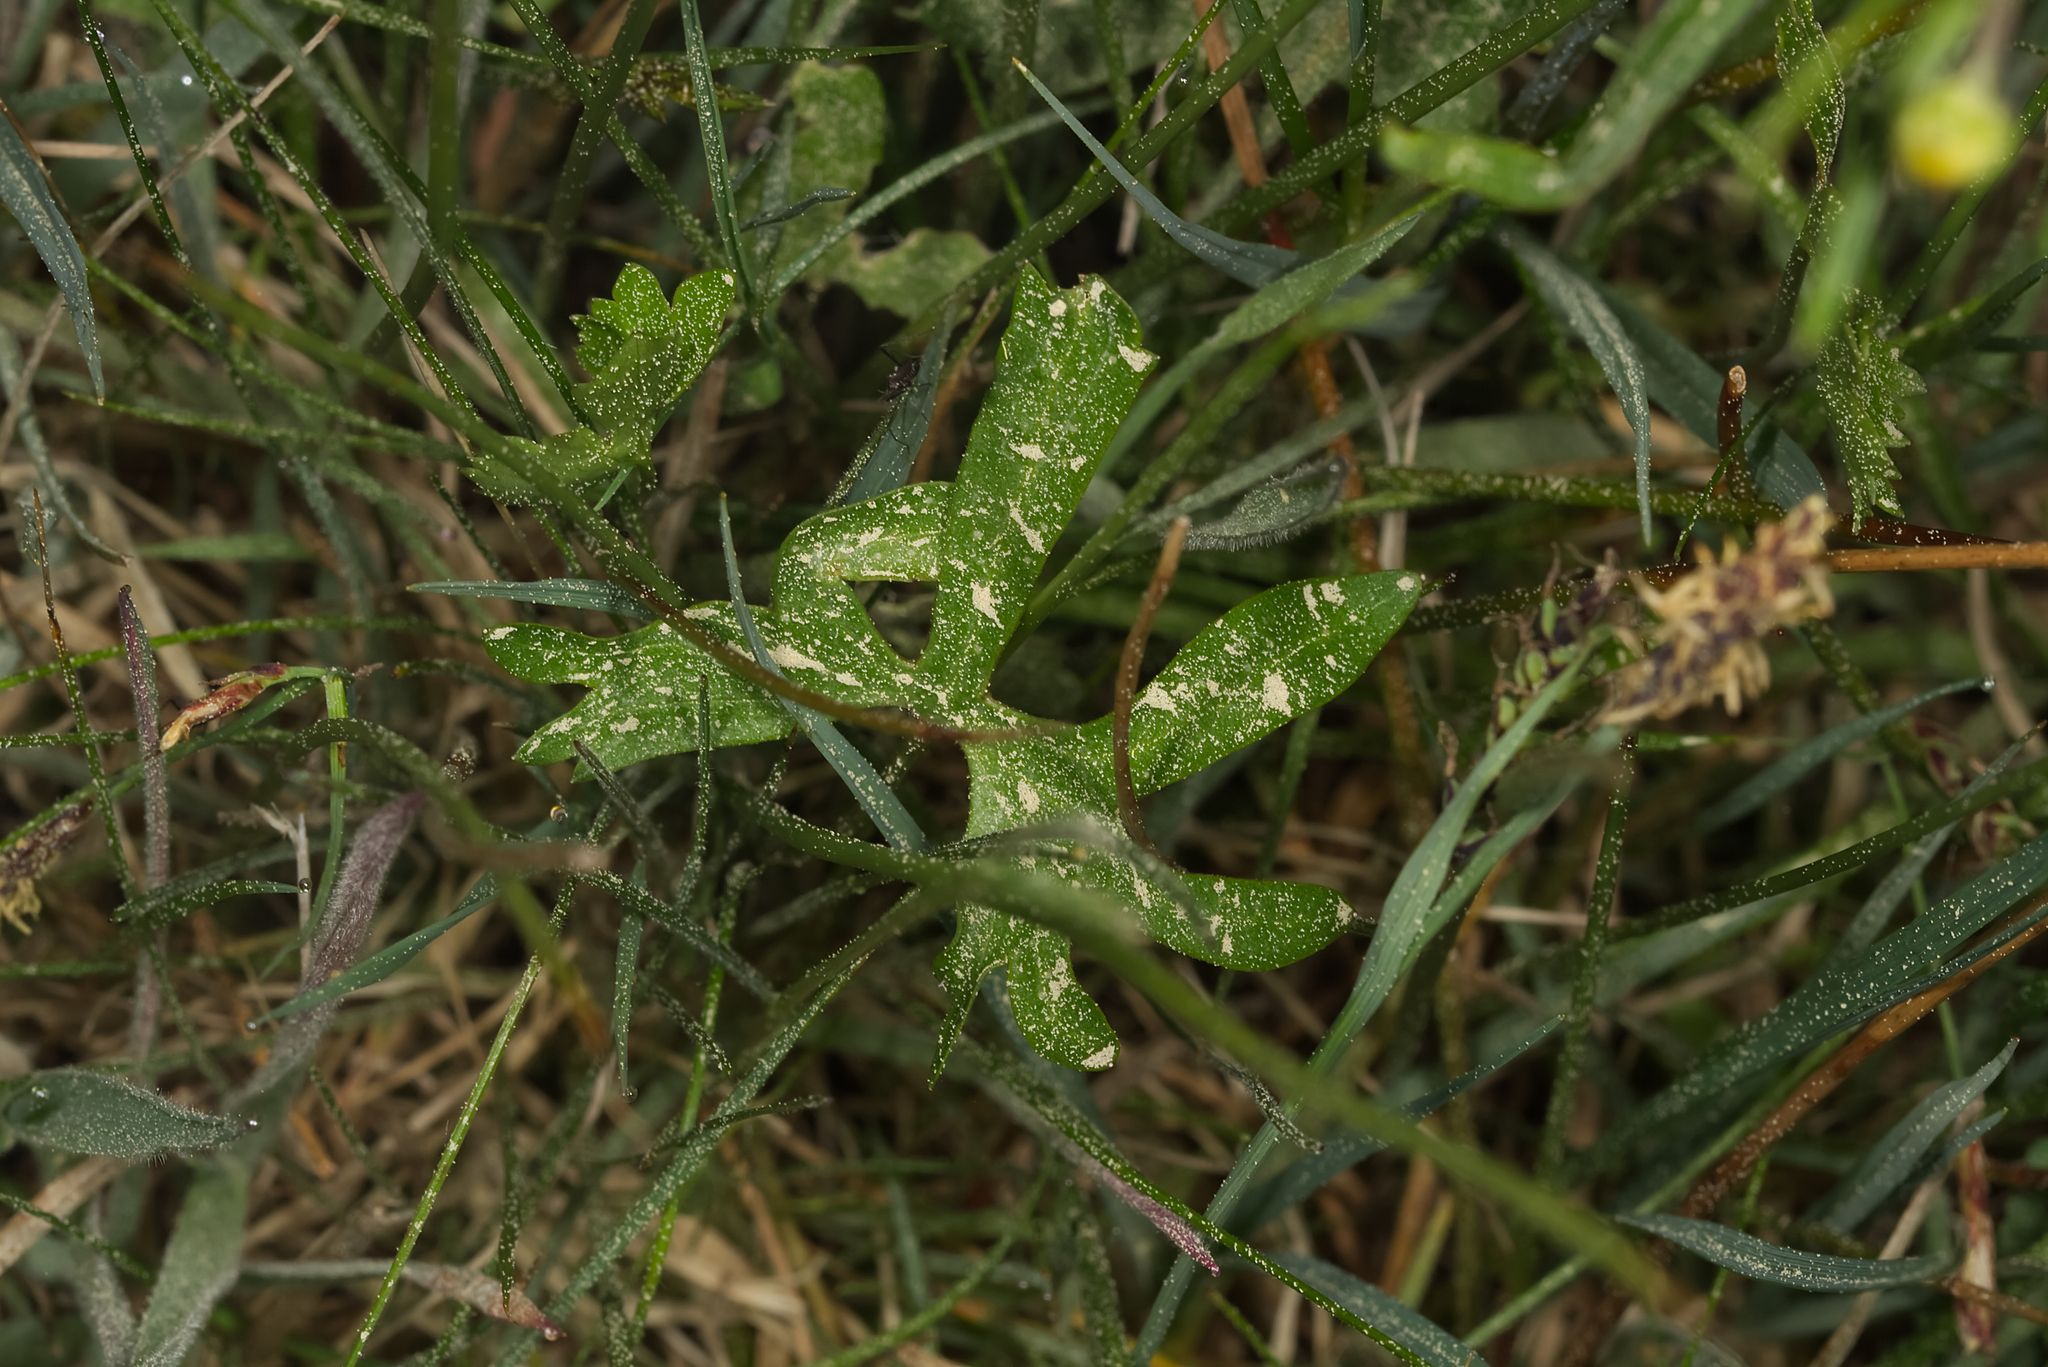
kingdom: Plantae
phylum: Tracheophyta
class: Magnoliopsida
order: Ranunculales
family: Ranunculaceae
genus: Ranunculus
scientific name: Ranunculus auricomus
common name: Goldilocks buttercup
